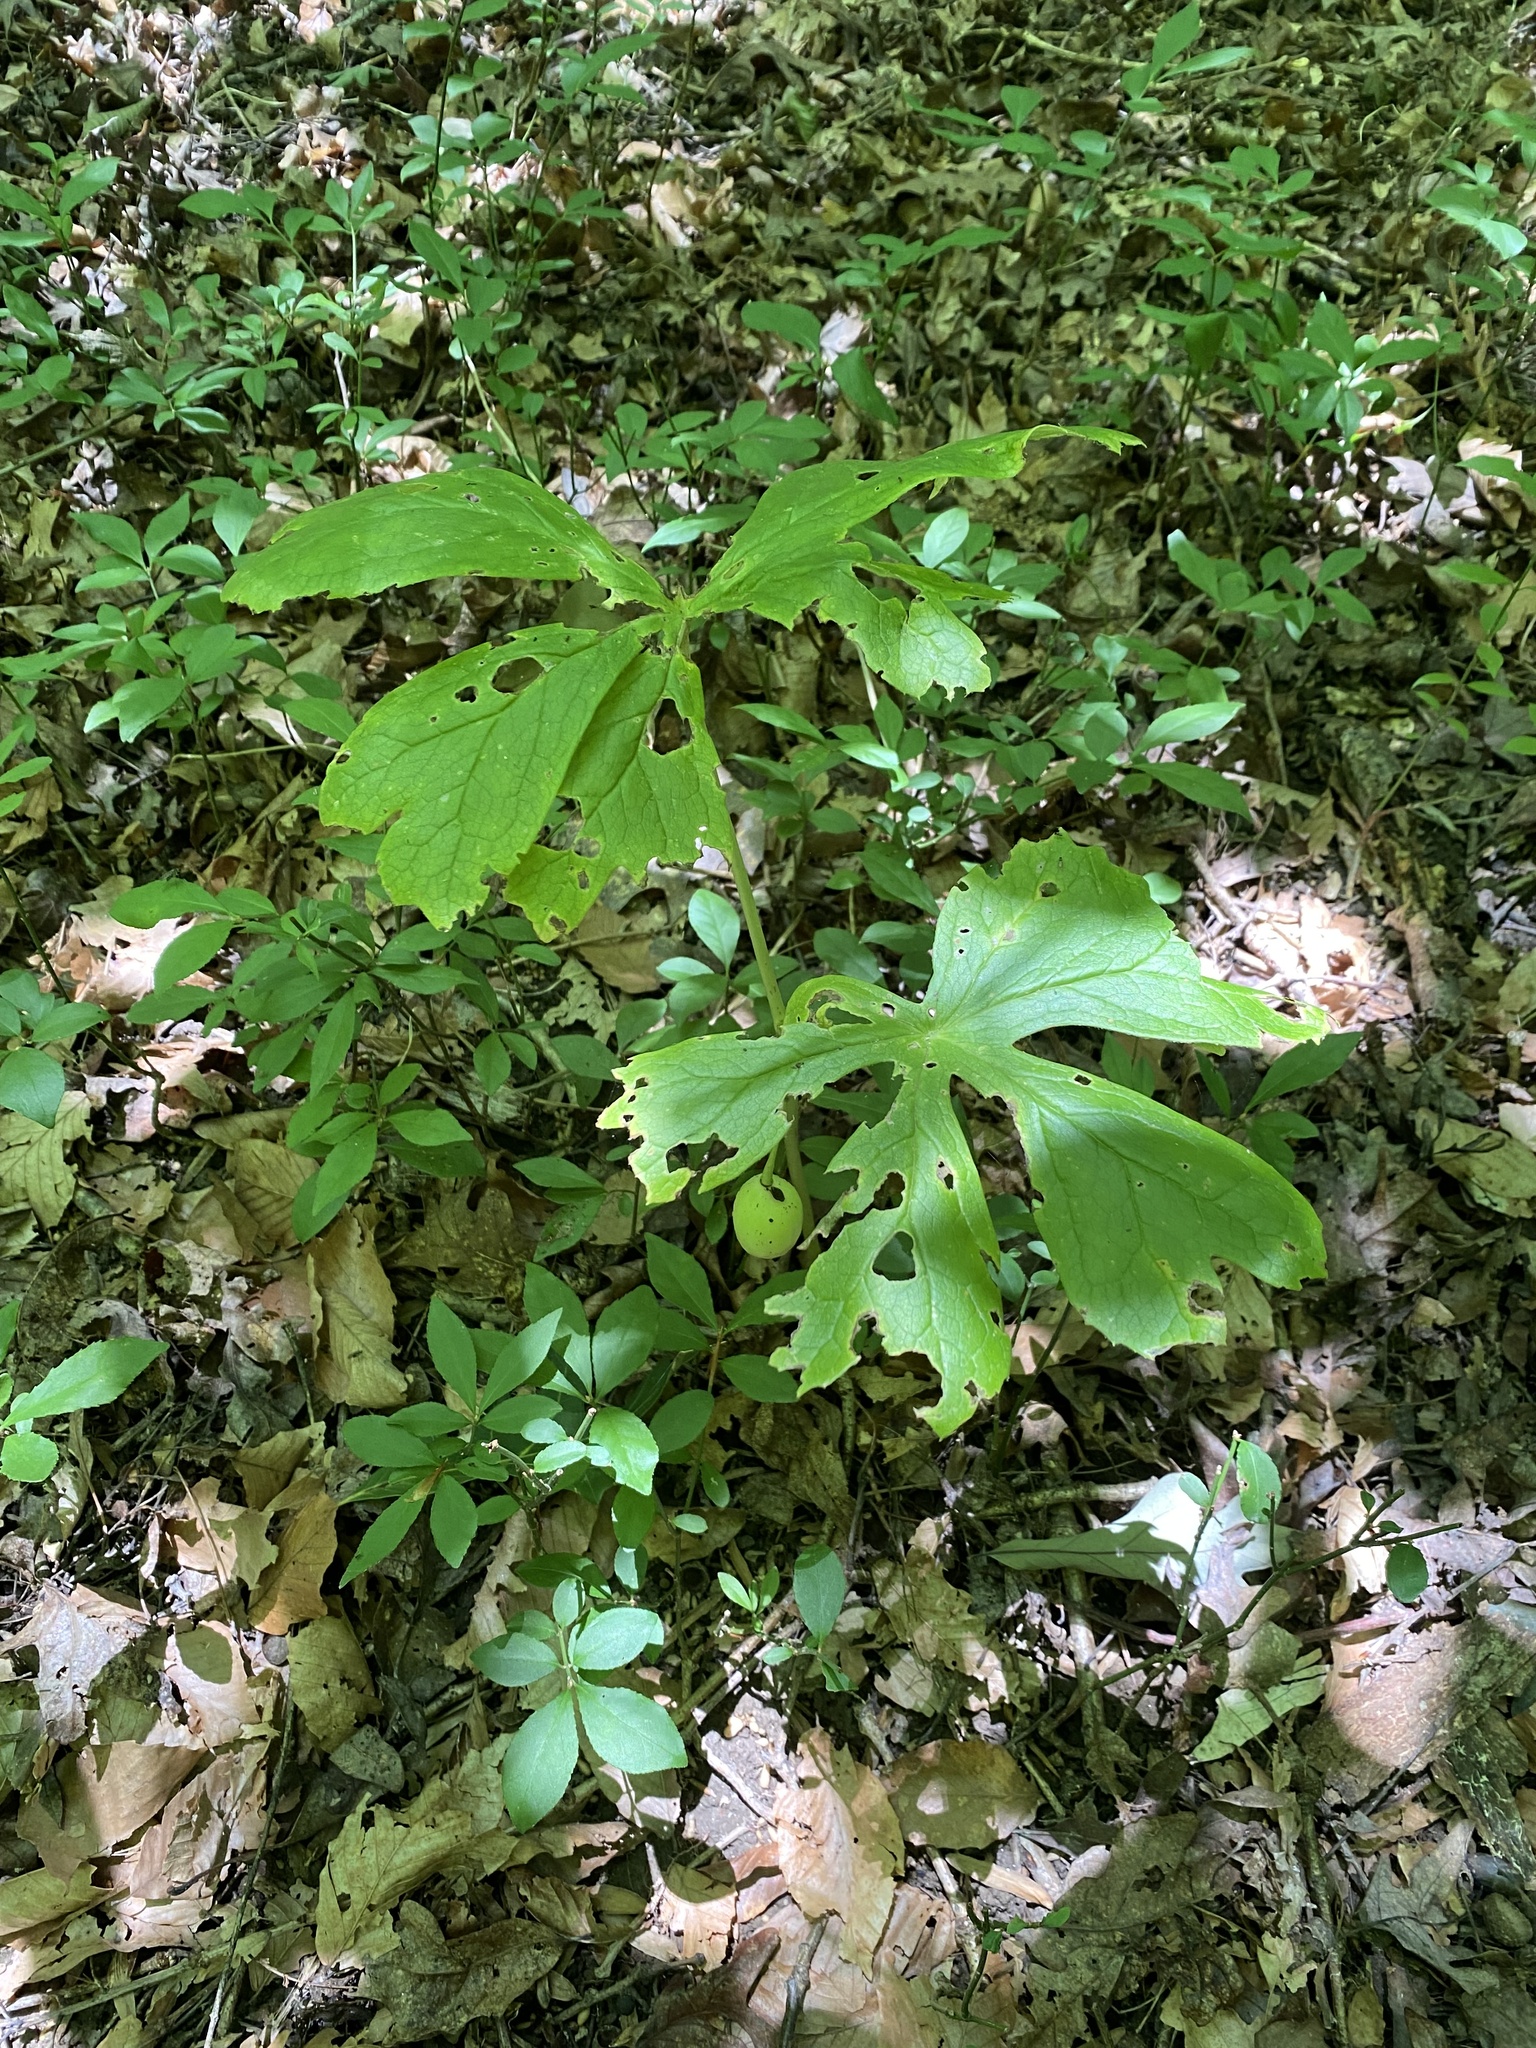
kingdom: Plantae
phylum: Tracheophyta
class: Magnoliopsida
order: Ranunculales
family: Berberidaceae
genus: Podophyllum
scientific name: Podophyllum peltatum
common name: Wild mandrake
